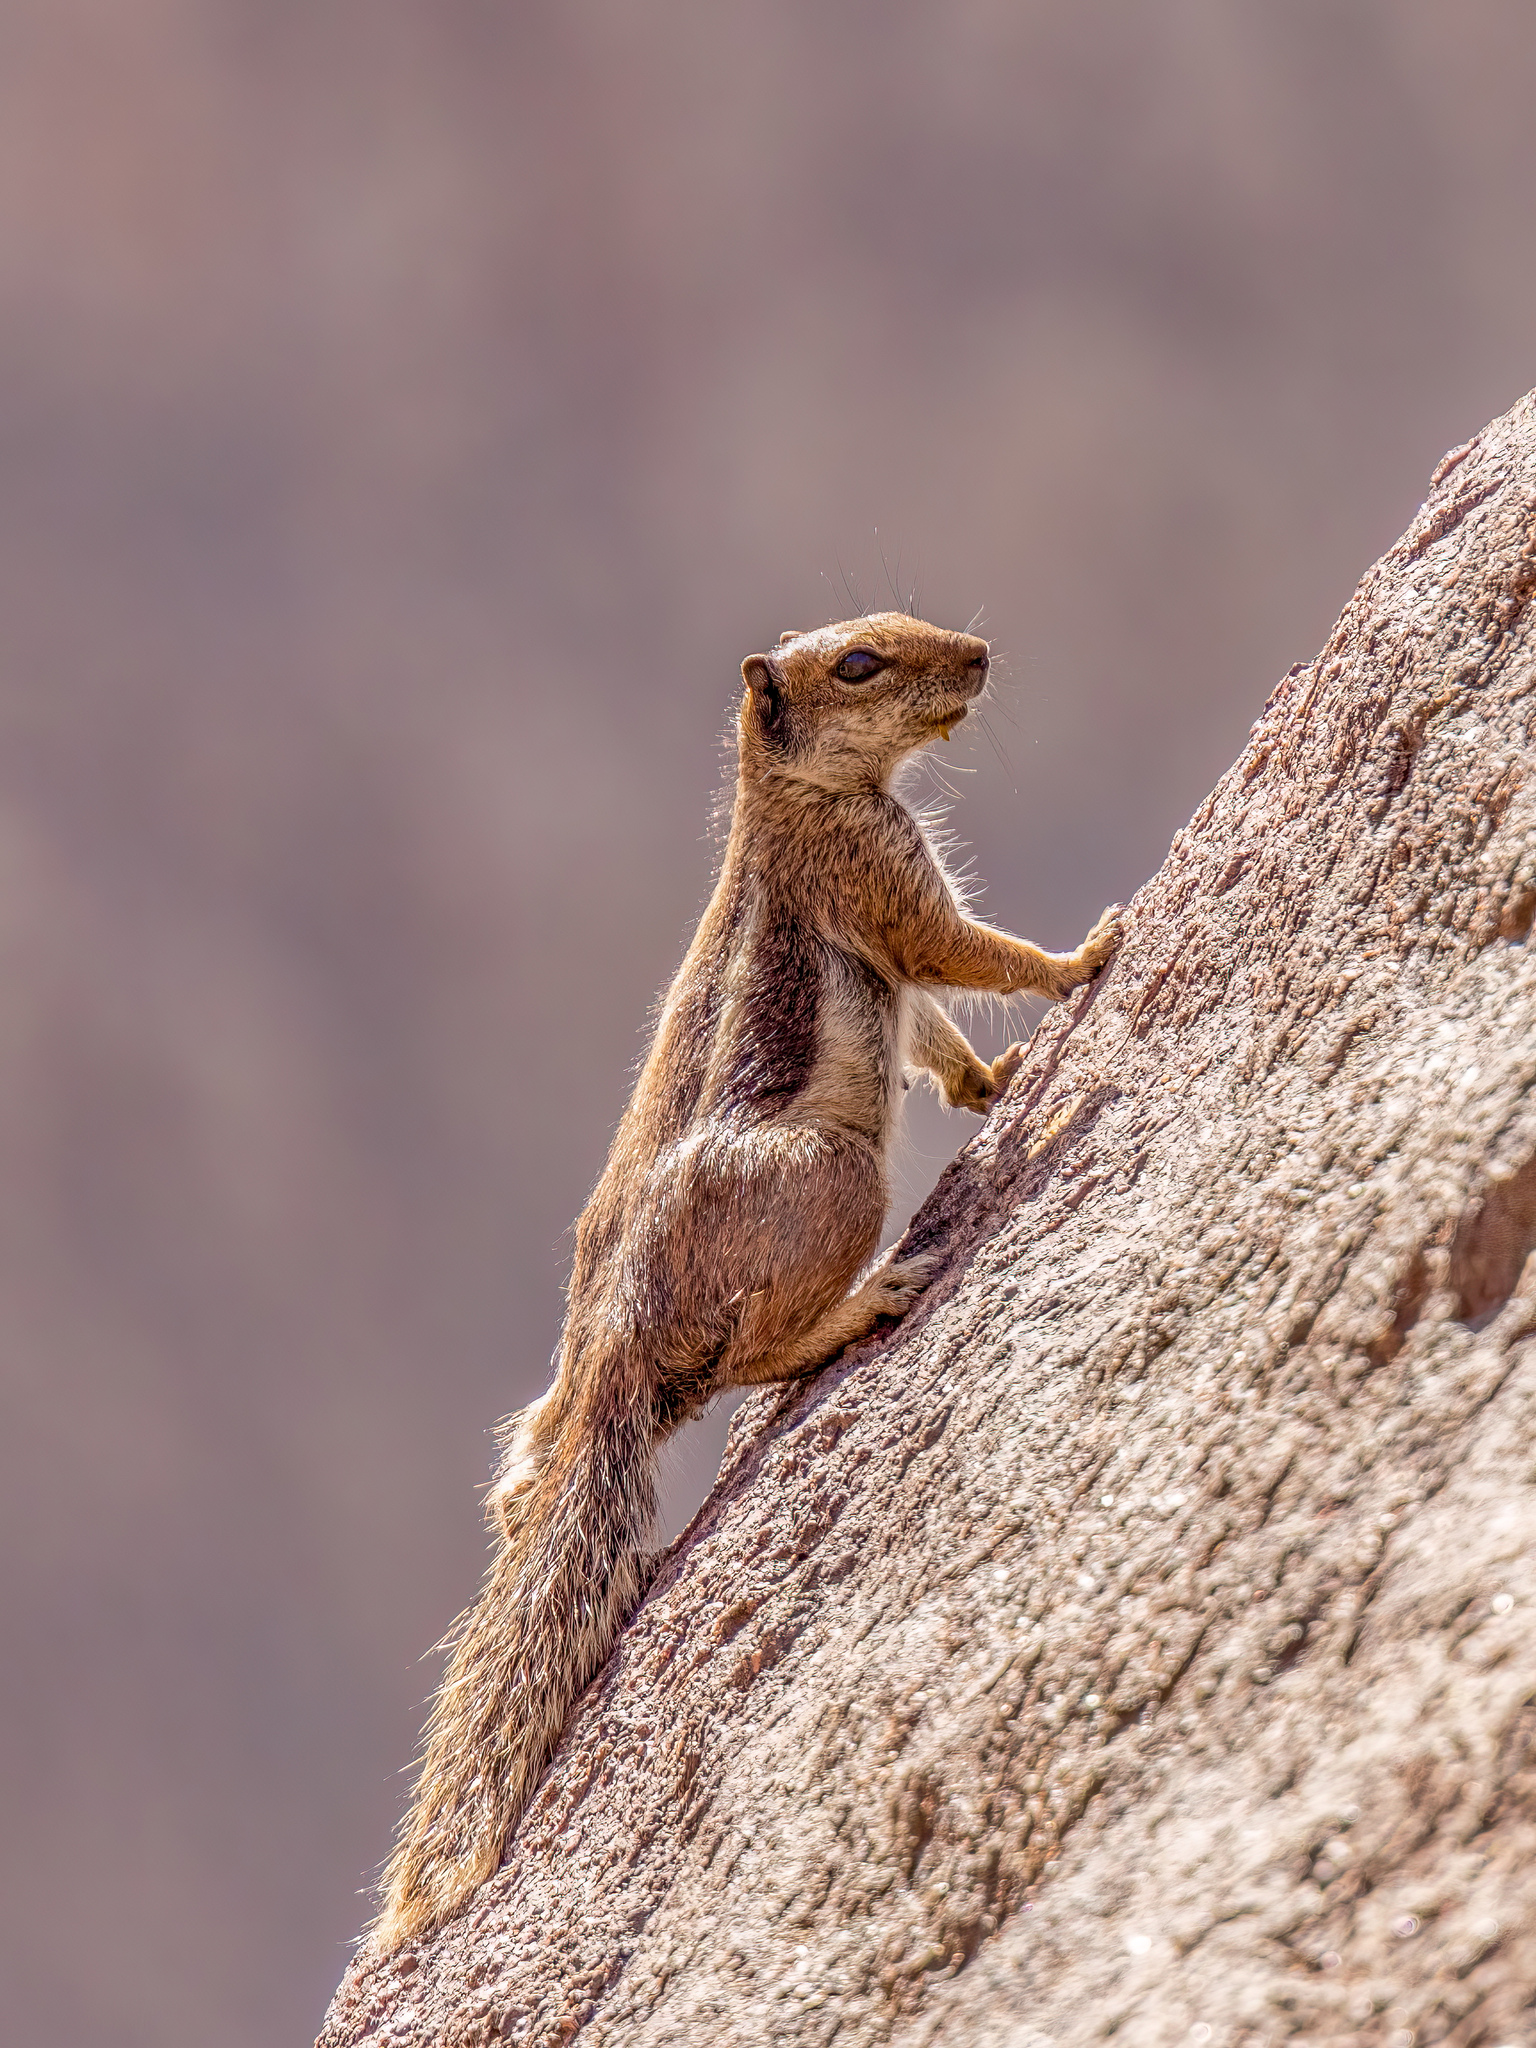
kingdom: Animalia
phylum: Chordata
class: Mammalia
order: Rodentia
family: Sciuridae
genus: Atlantoxerus
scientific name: Atlantoxerus getulus
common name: Barbary ground squirrel
